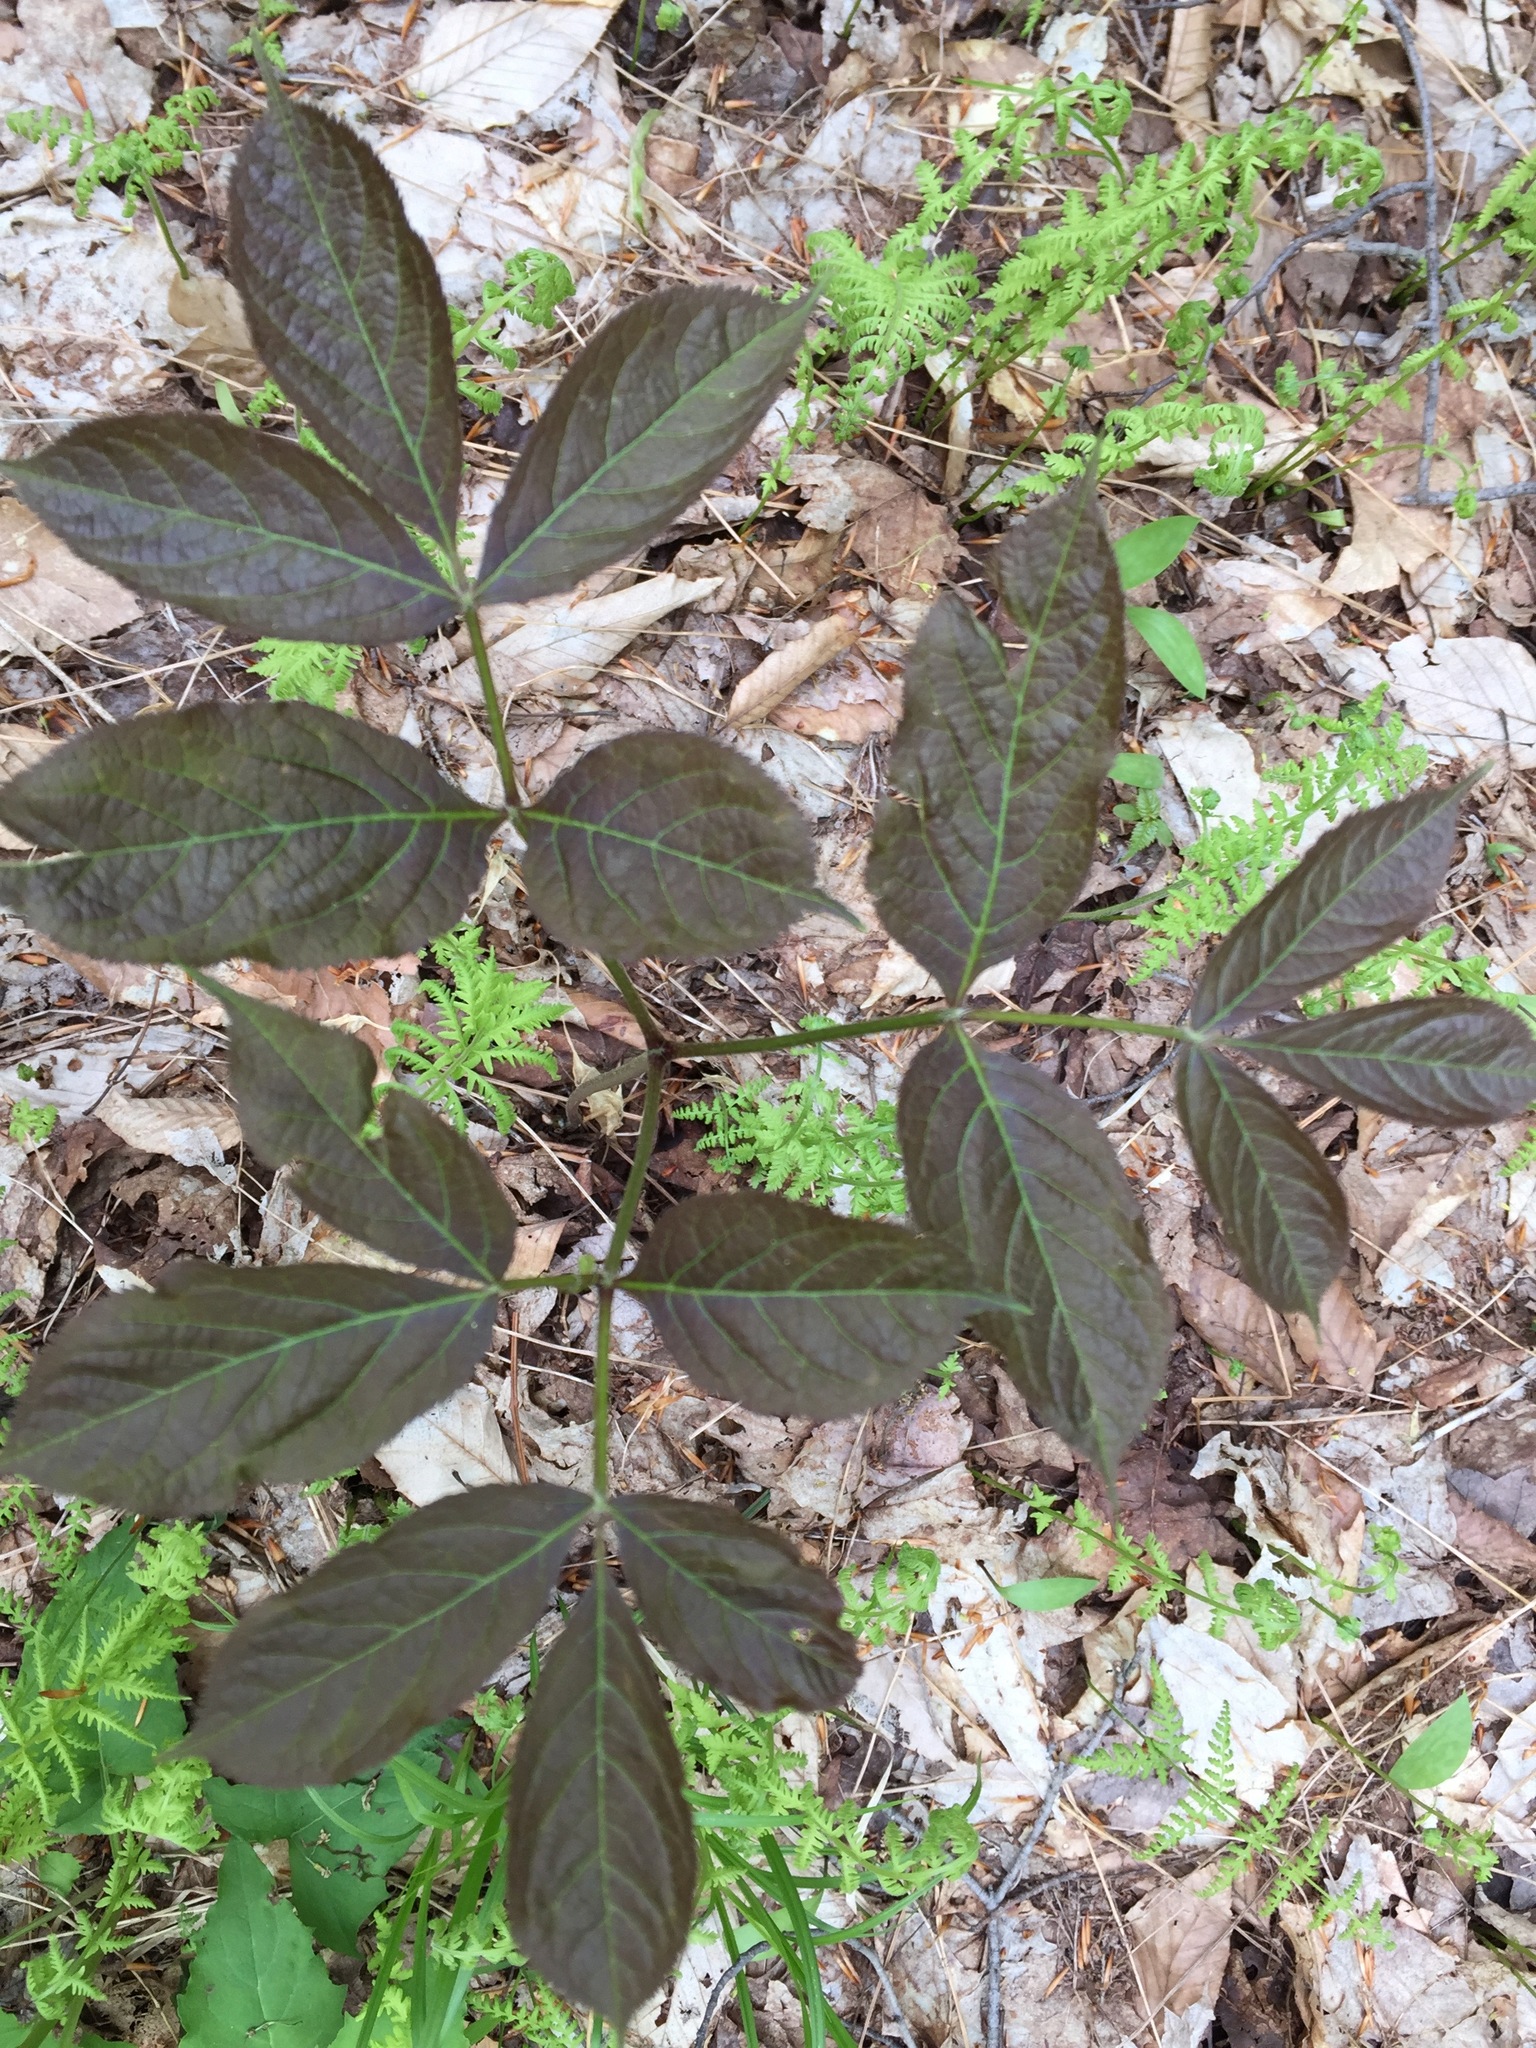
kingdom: Plantae
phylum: Tracheophyta
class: Magnoliopsida
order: Apiales
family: Araliaceae
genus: Aralia
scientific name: Aralia nudicaulis
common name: Wild sarsaparilla
